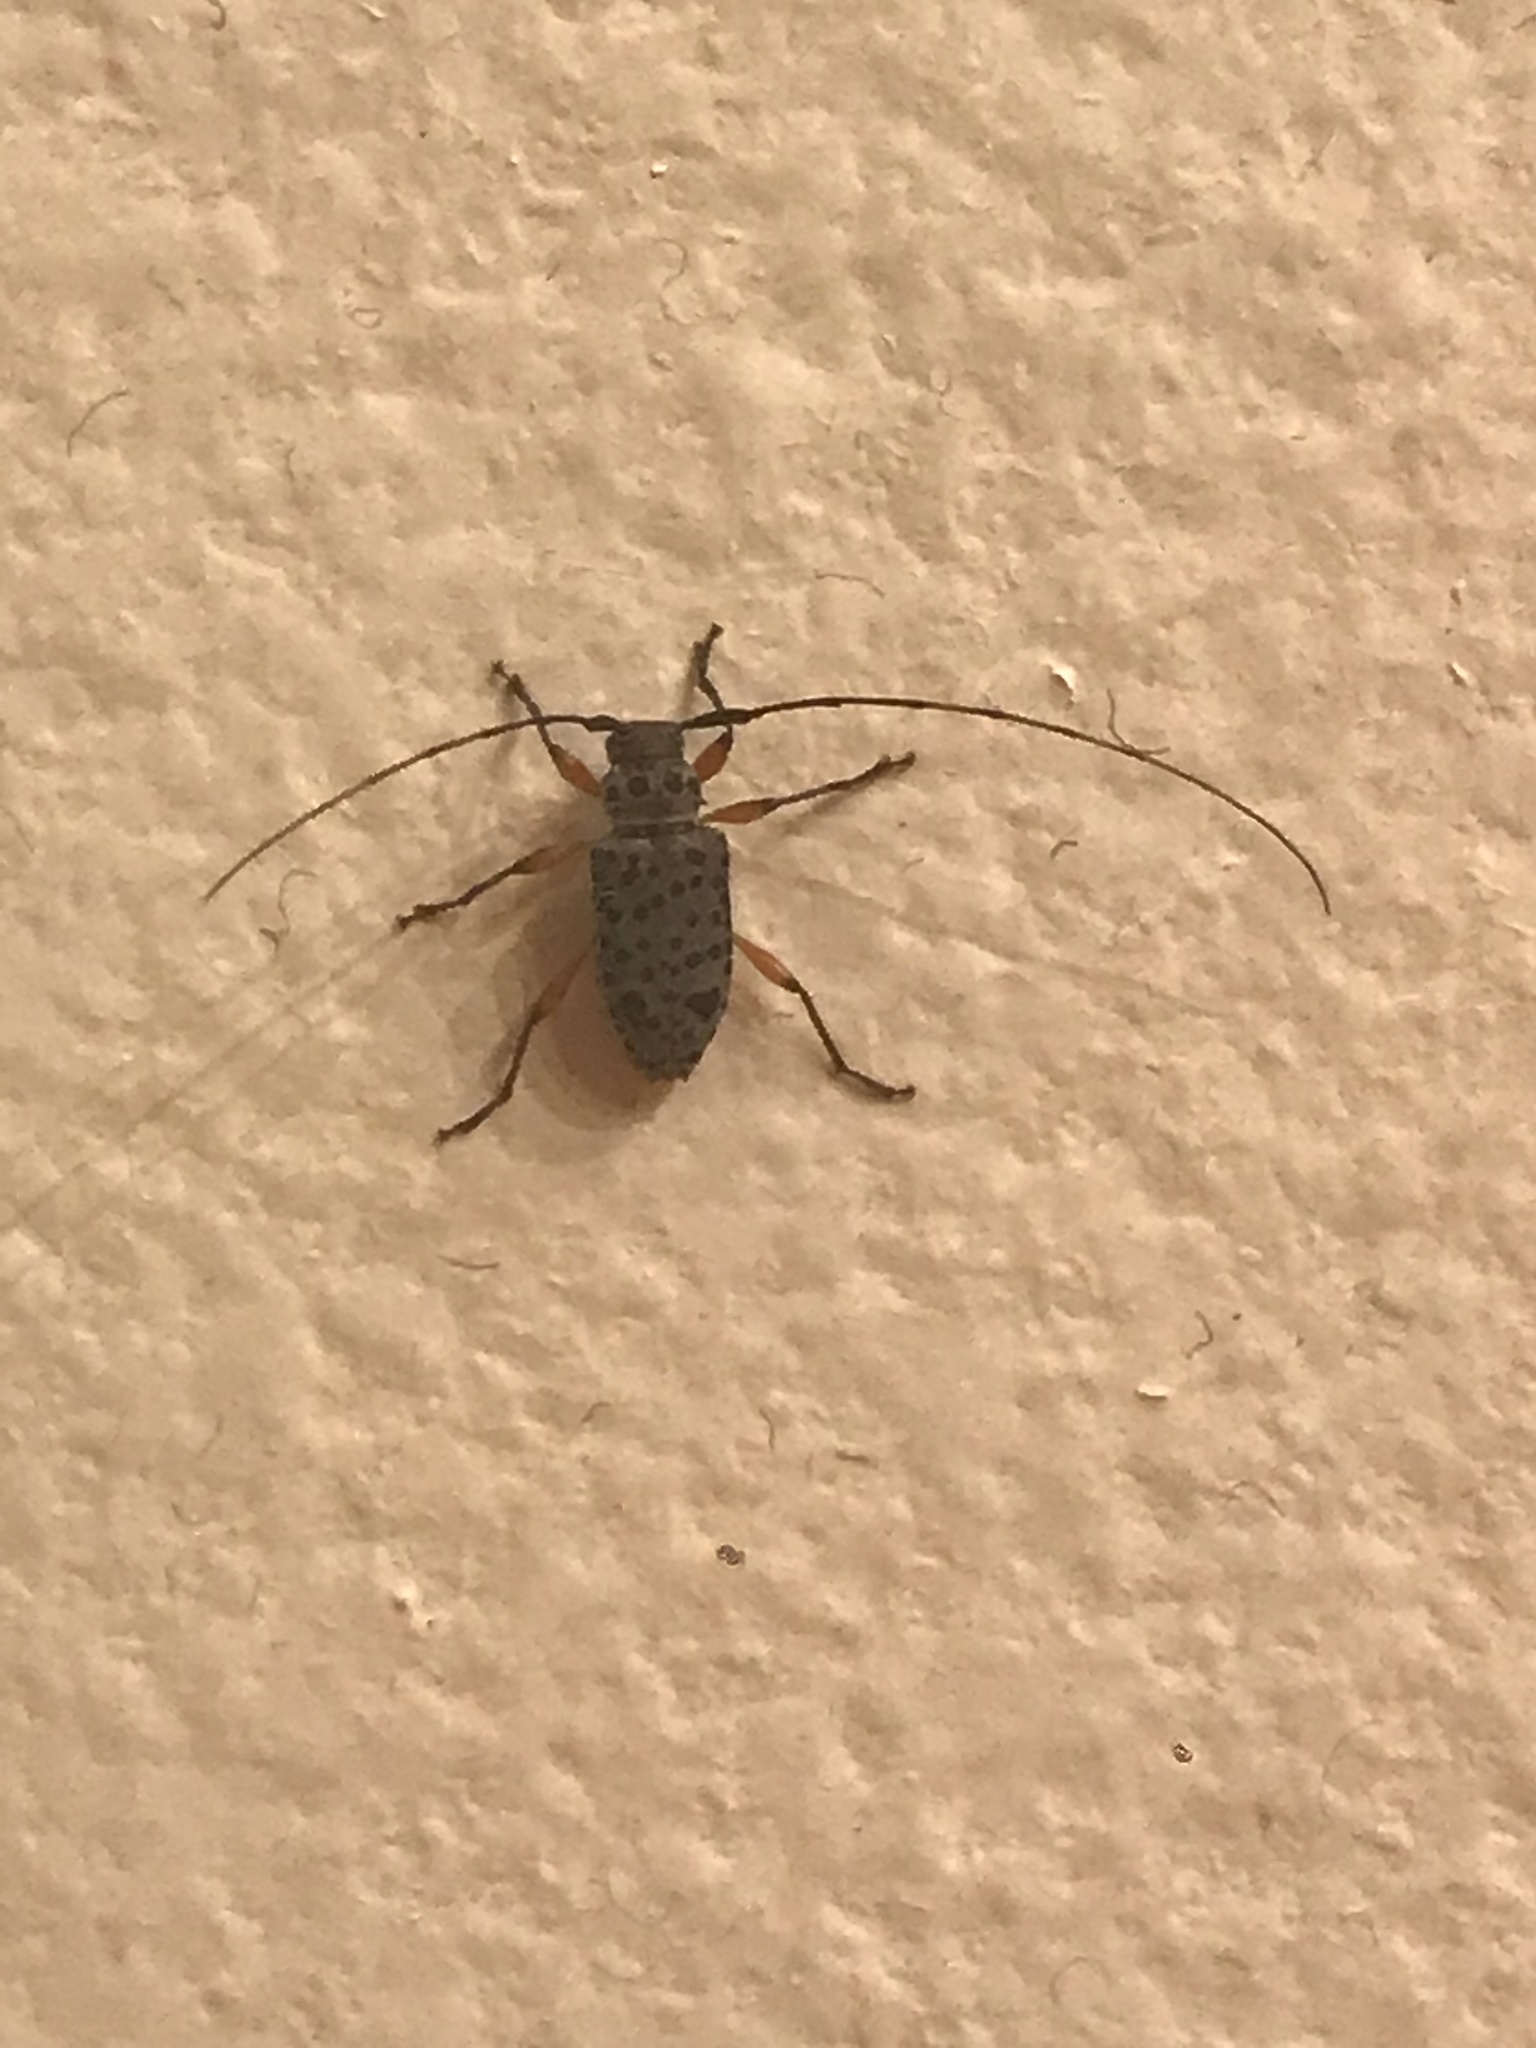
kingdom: Animalia
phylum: Arthropoda
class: Insecta
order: Coleoptera
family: Cerambycidae
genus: Hyperplatys
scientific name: Hyperplatys aspersa
